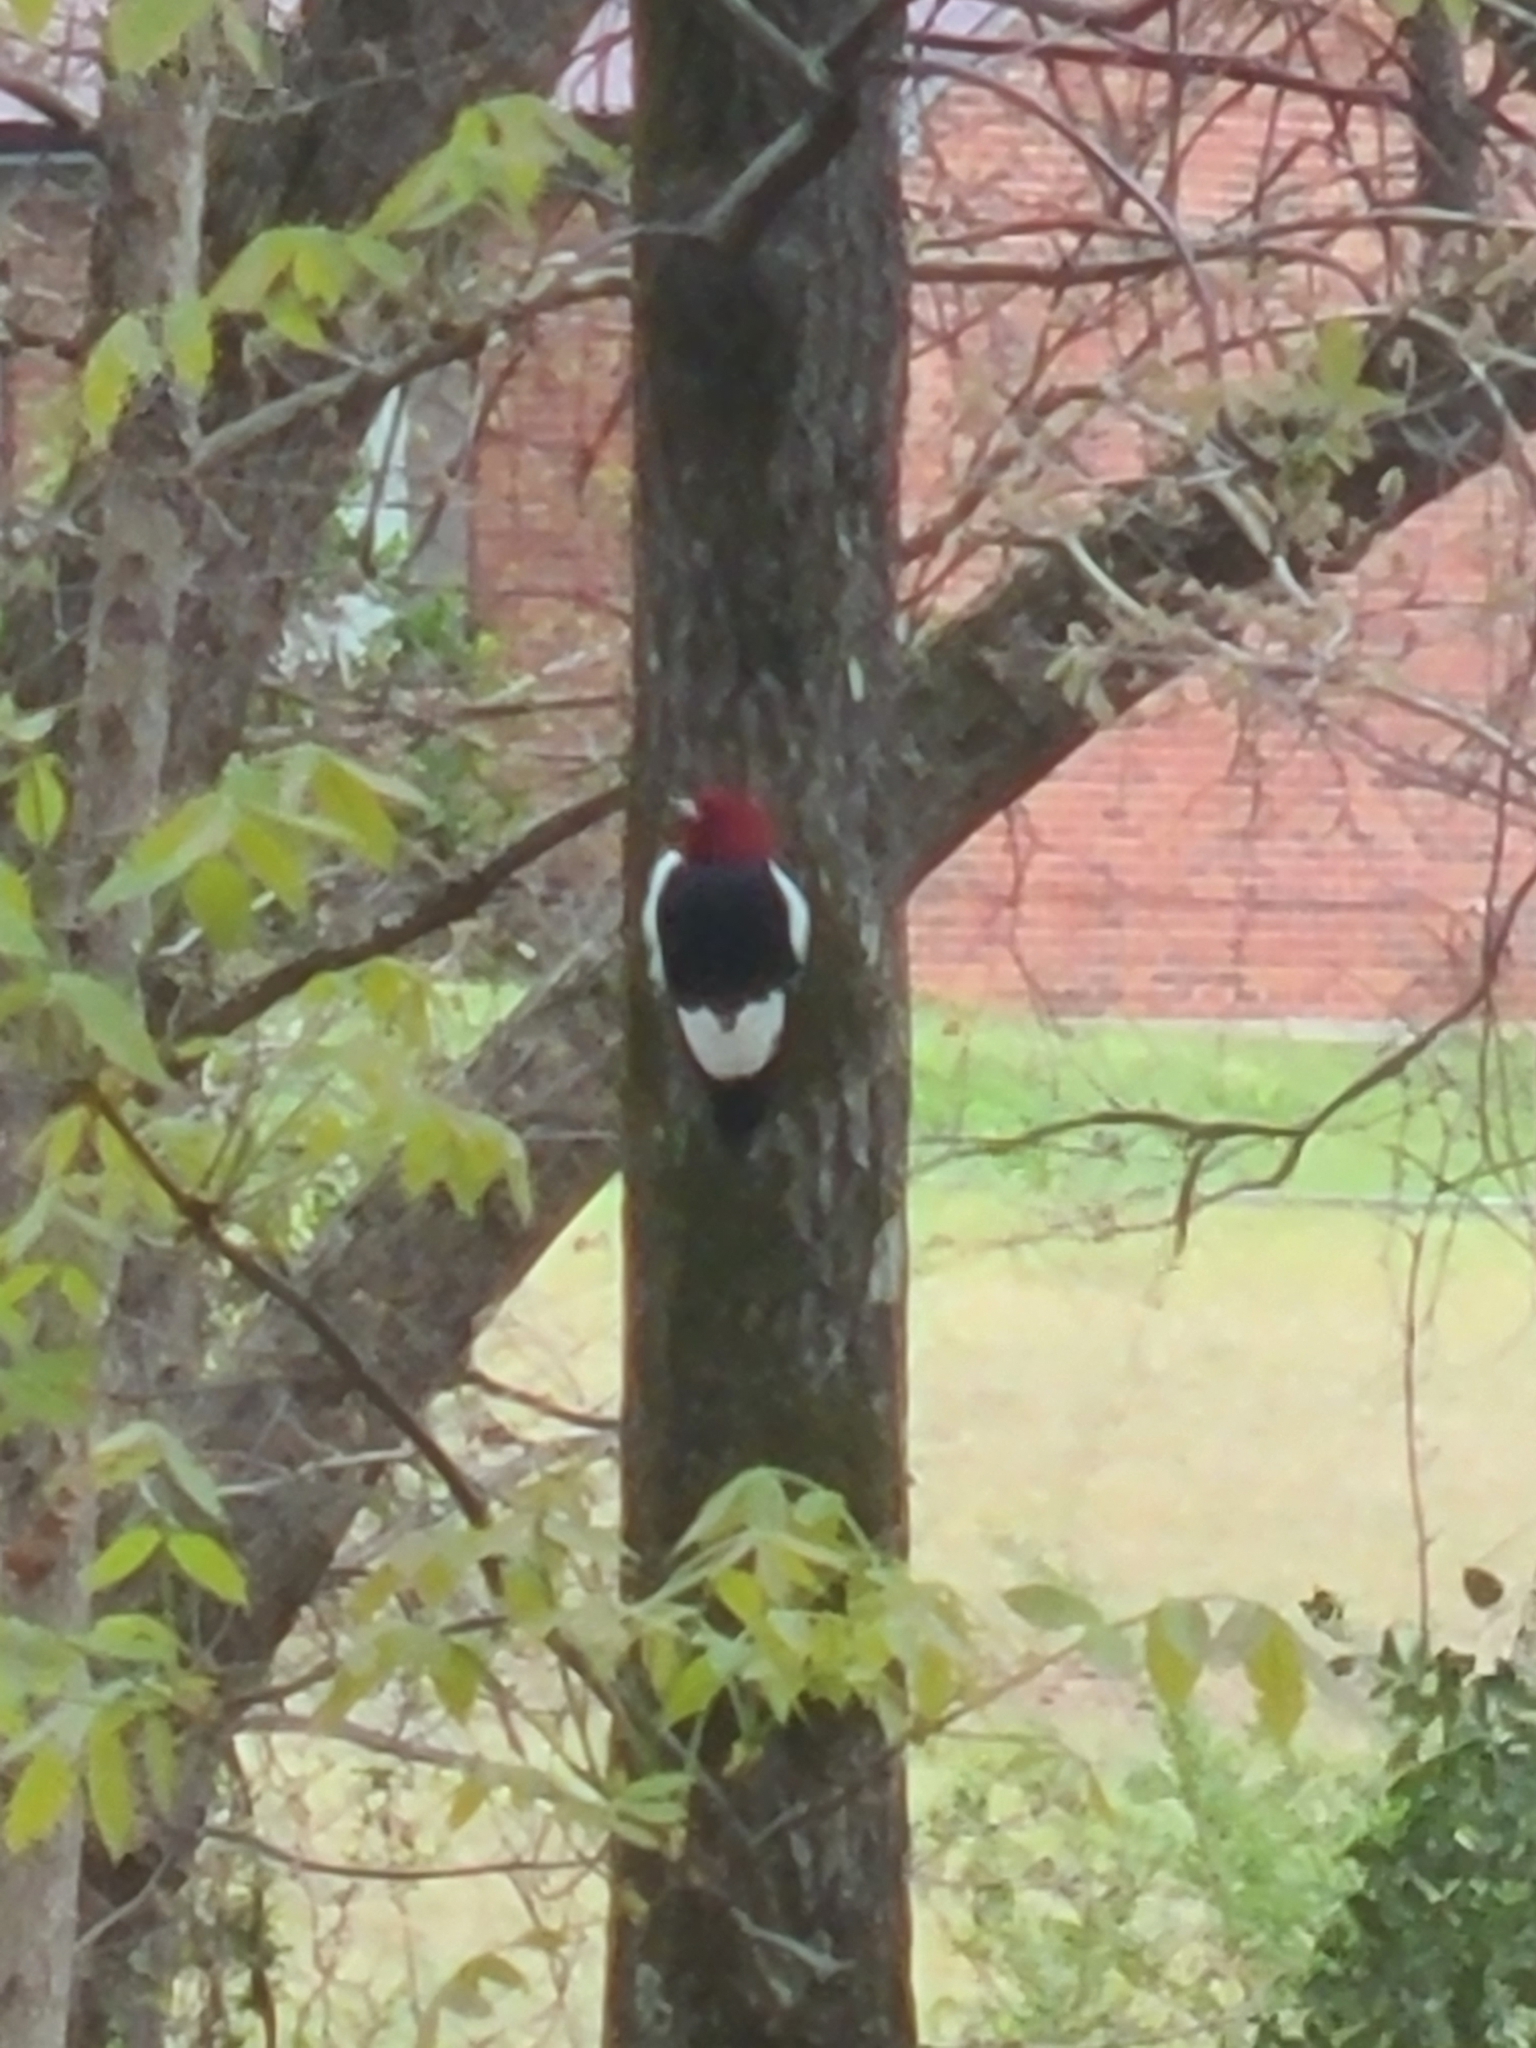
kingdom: Animalia
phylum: Chordata
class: Aves
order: Piciformes
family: Picidae
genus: Melanerpes
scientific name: Melanerpes erythrocephalus
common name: Red-headed woodpecker
